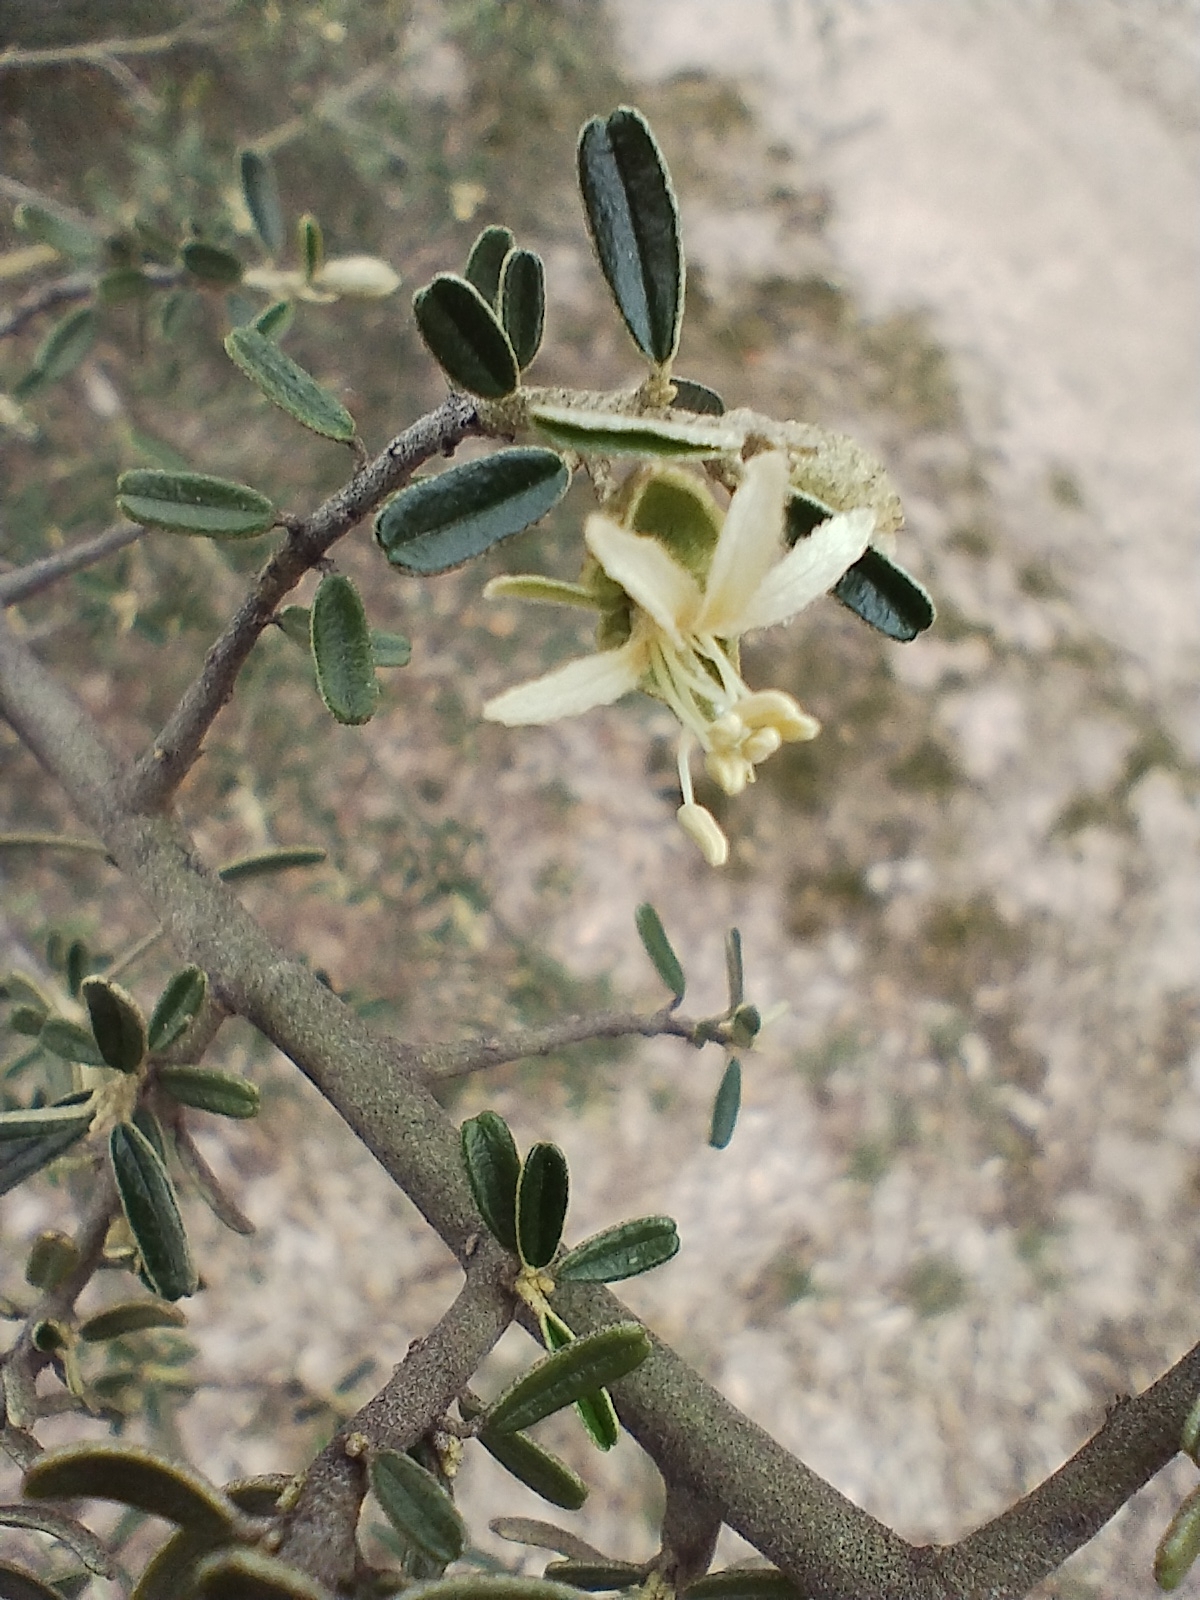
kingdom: Plantae
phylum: Tracheophyta
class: Magnoliopsida
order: Brassicales
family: Capparaceae
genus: Atamisquea
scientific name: Atamisquea emarginata
